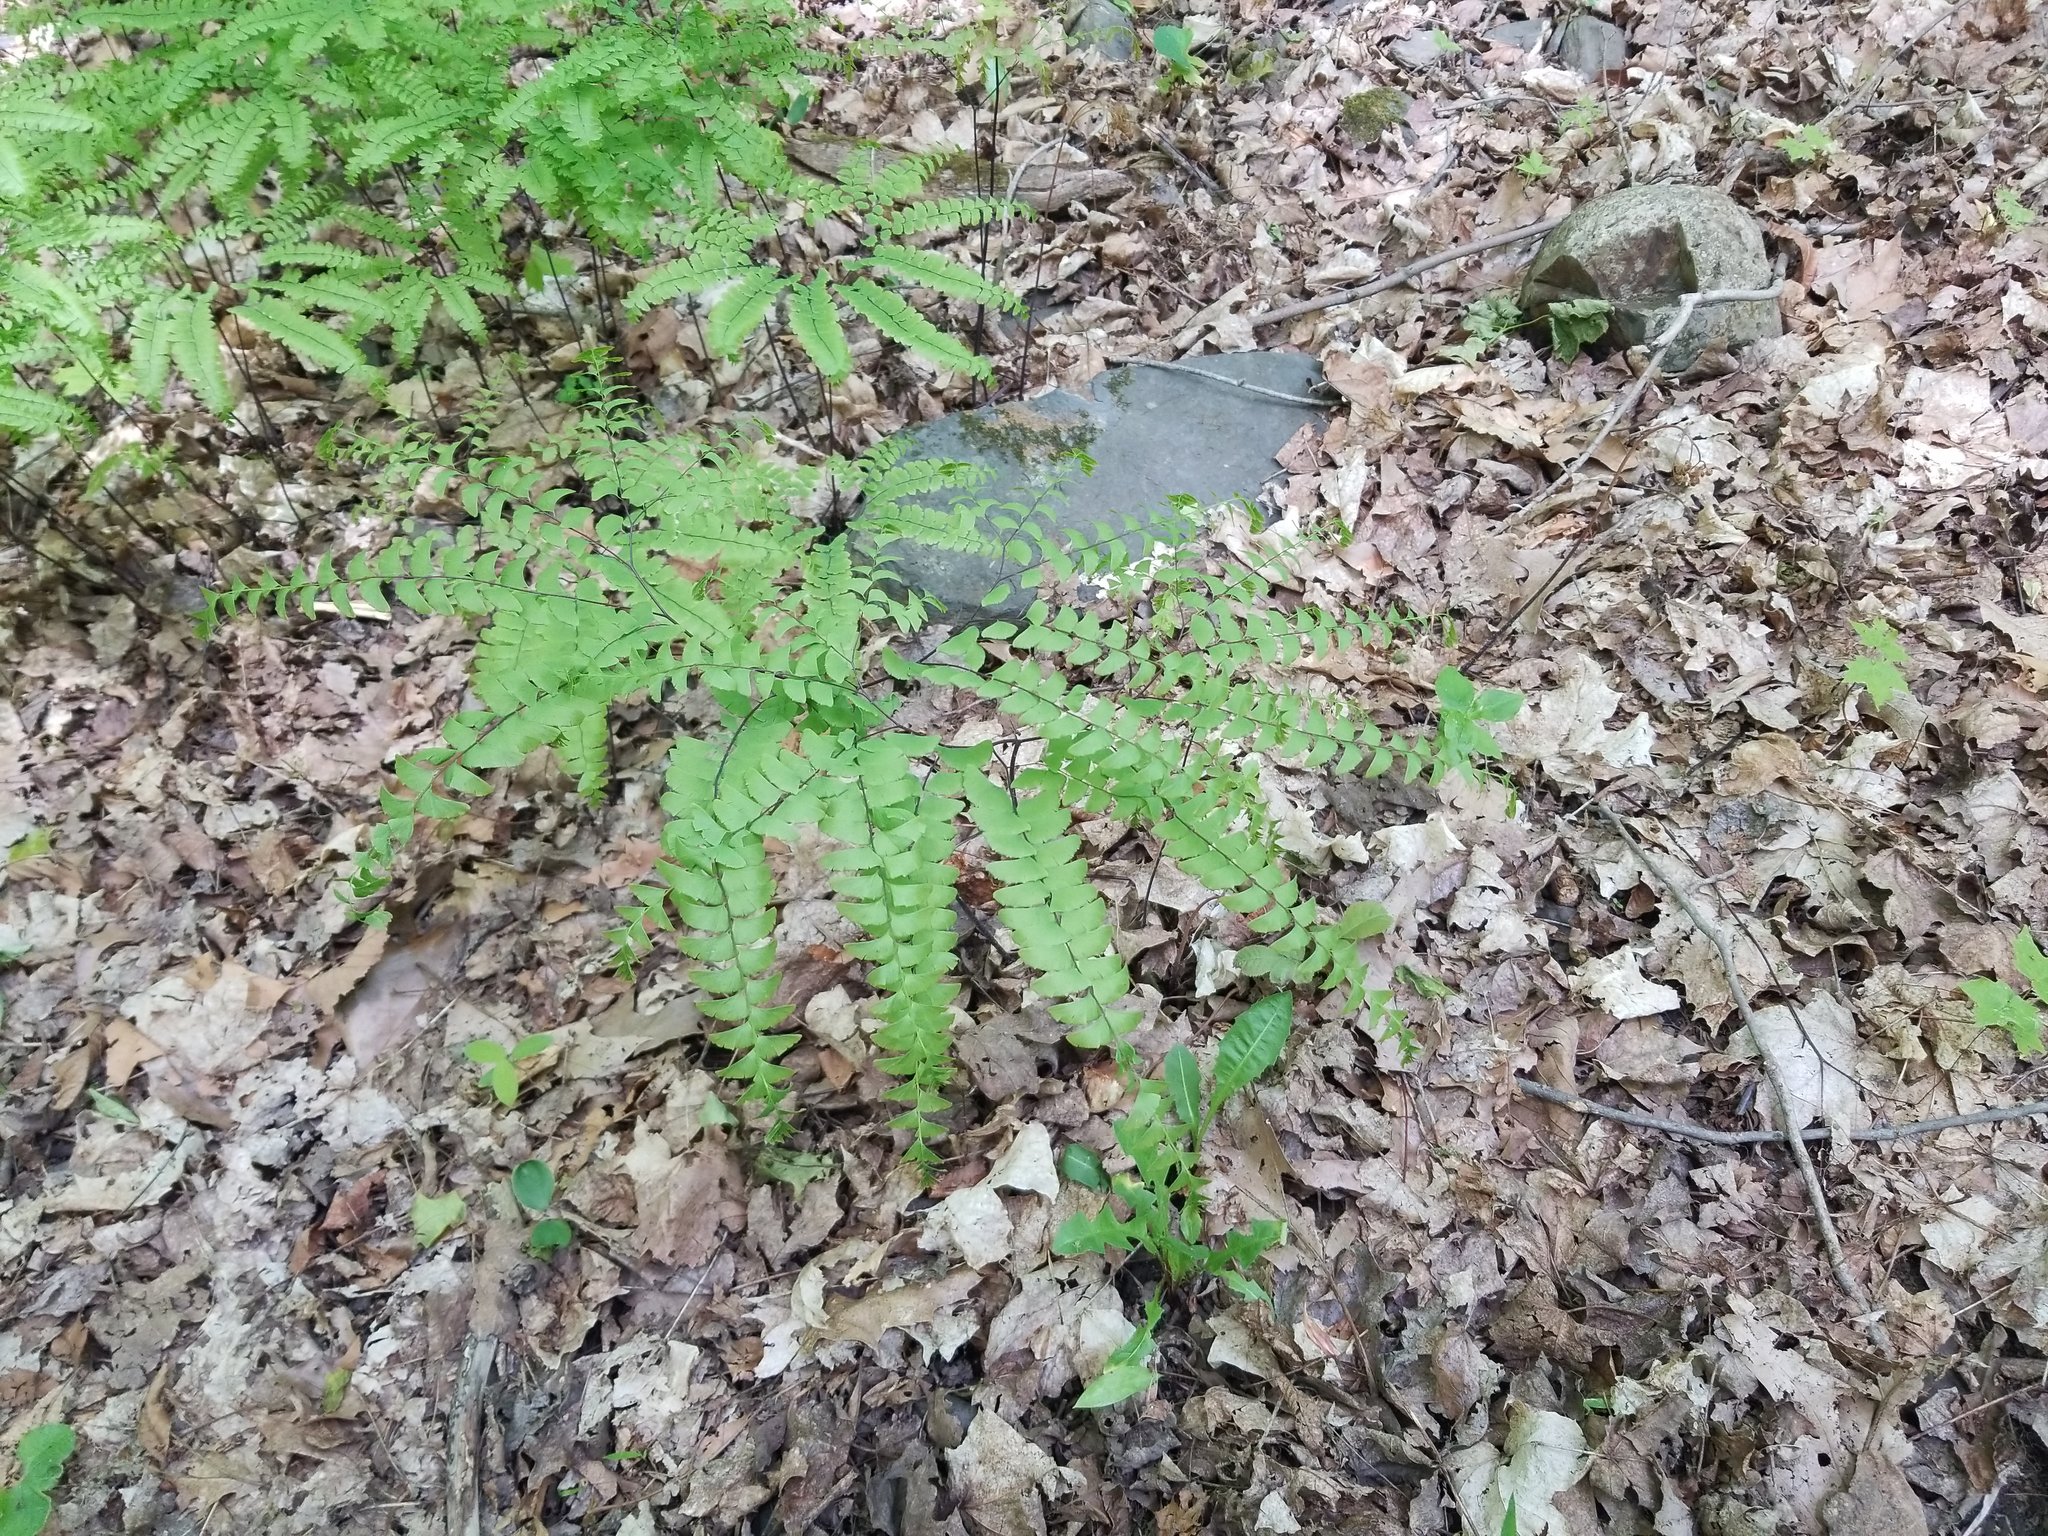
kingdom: Plantae
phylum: Tracheophyta
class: Polypodiopsida
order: Polypodiales
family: Pteridaceae
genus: Adiantum
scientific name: Adiantum pedatum
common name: Five-finger fern
